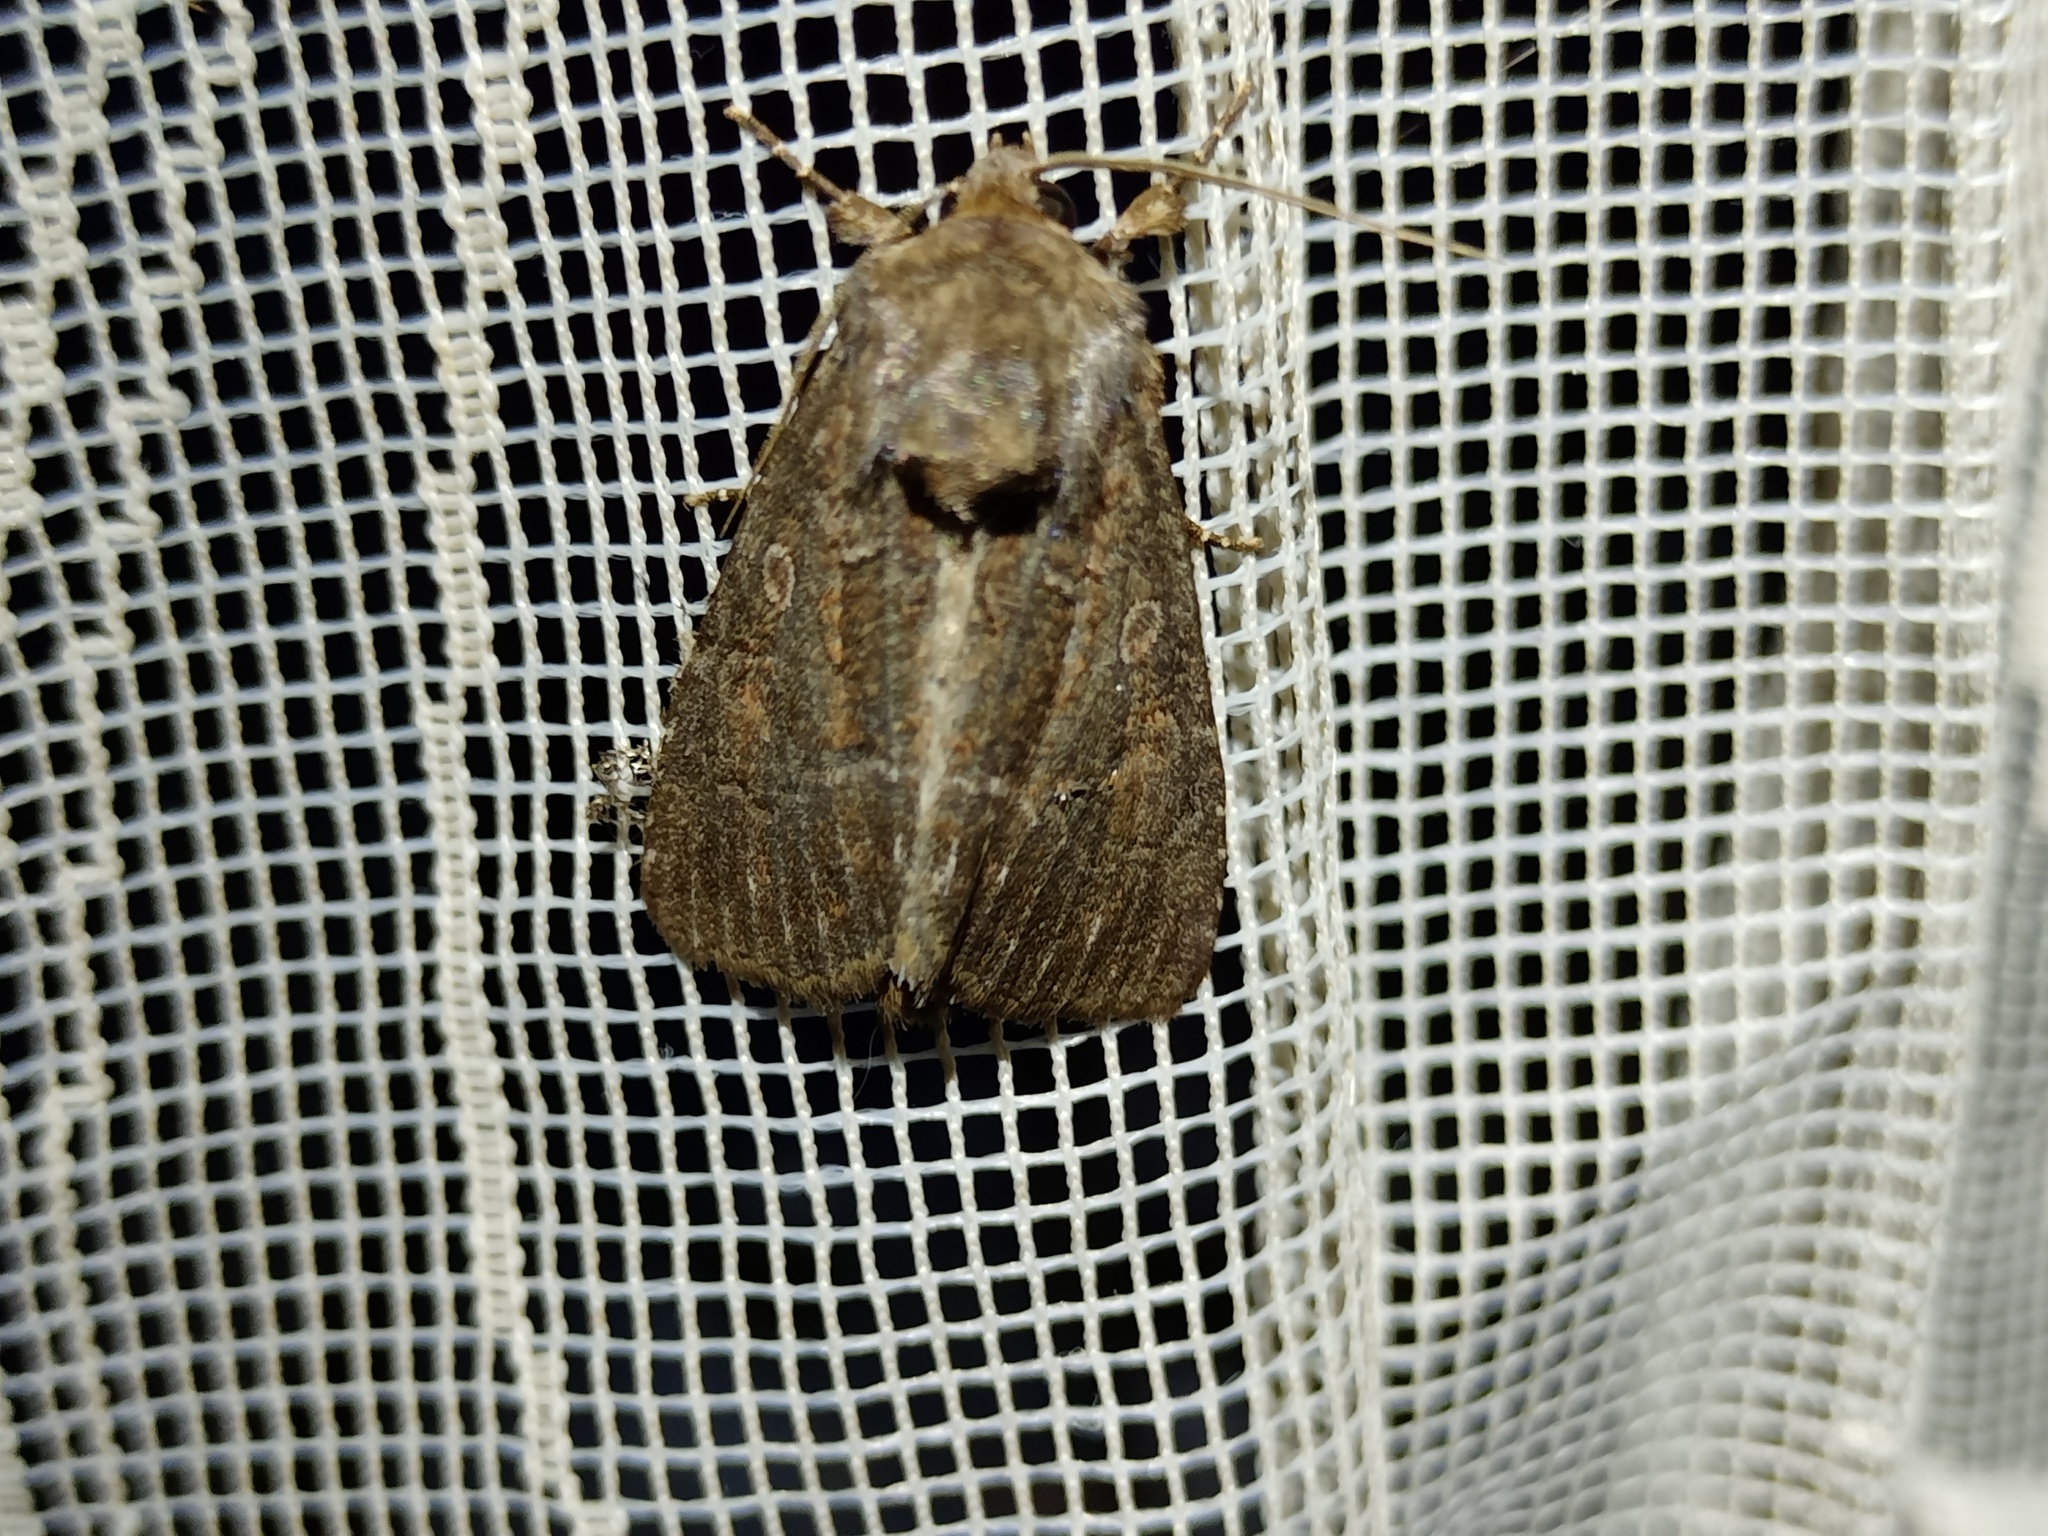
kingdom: Animalia
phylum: Arthropoda
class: Insecta
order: Lepidoptera
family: Noctuidae
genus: Thalpophila
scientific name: Thalpophila matura
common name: Straw underwing
